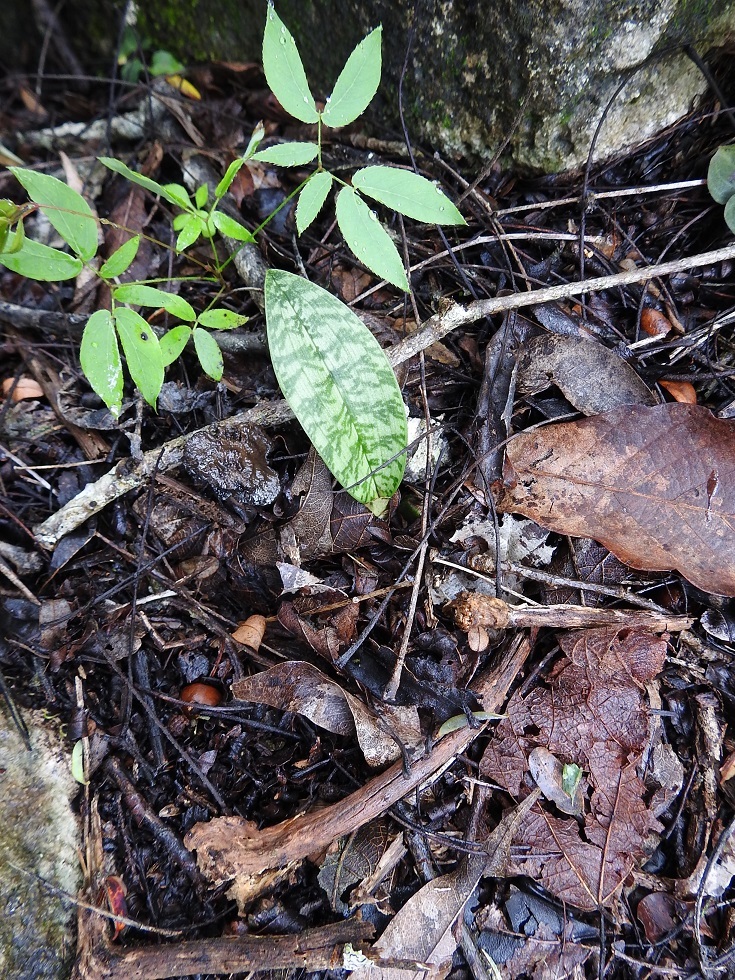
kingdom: Plantae
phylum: Tracheophyta
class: Liliopsida
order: Asparagales
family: Orchidaceae
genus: Eulophia
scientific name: Eulophia maculata
